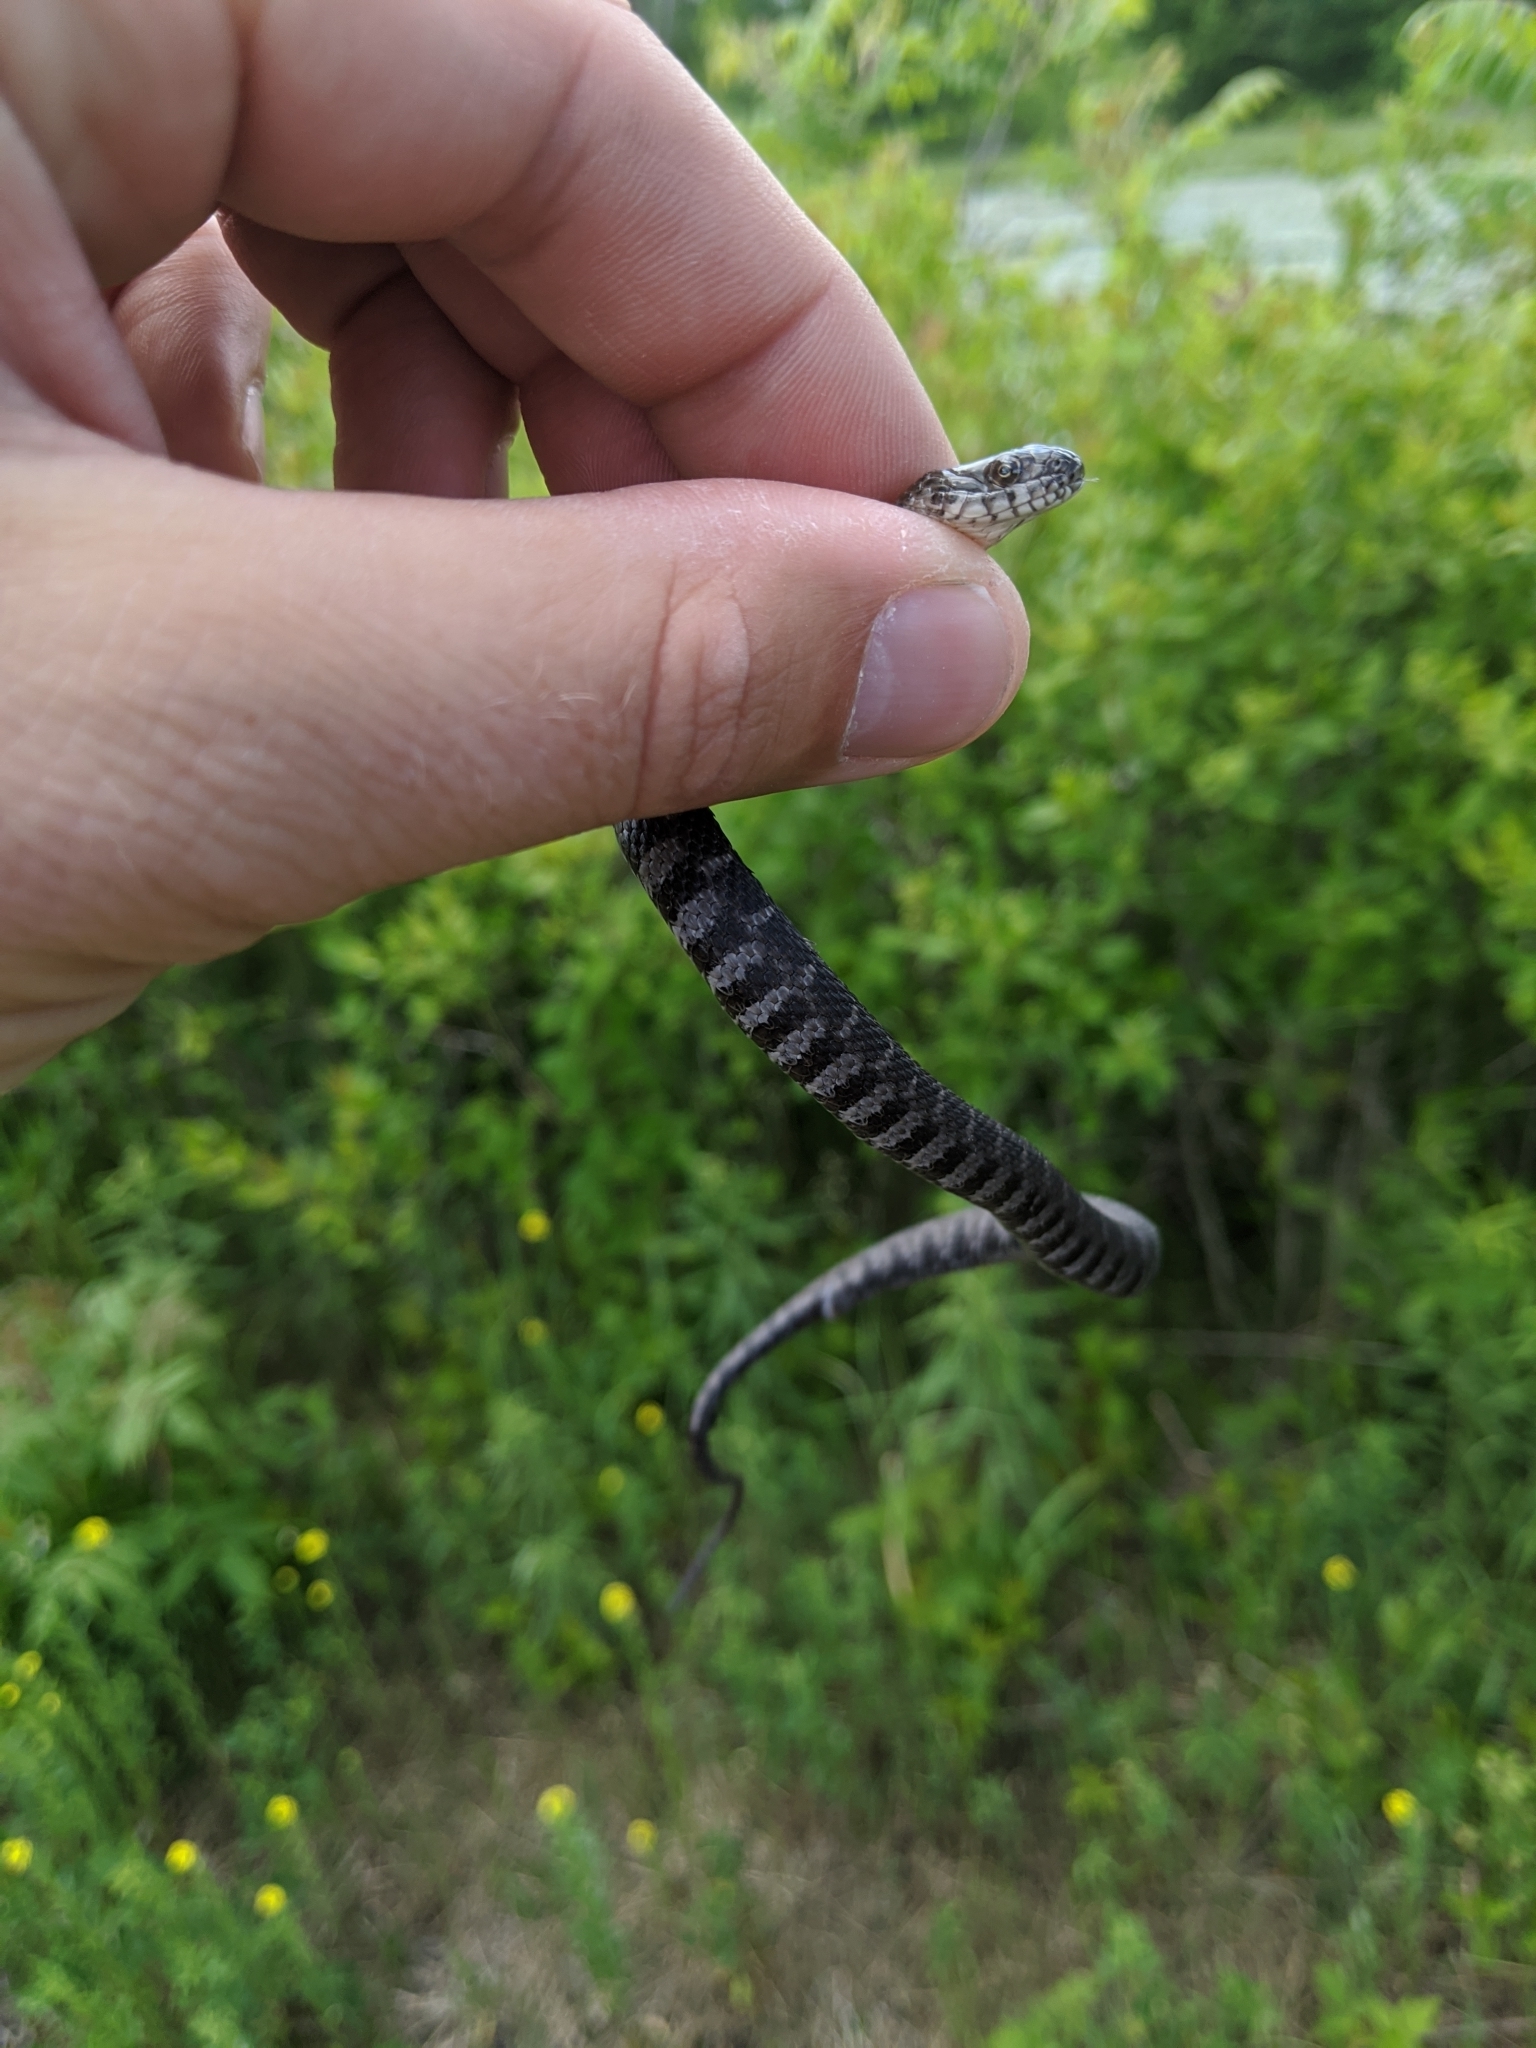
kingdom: Animalia
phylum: Chordata
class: Squamata
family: Colubridae
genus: Nerodia
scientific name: Nerodia sipedon
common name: Northern water snake
